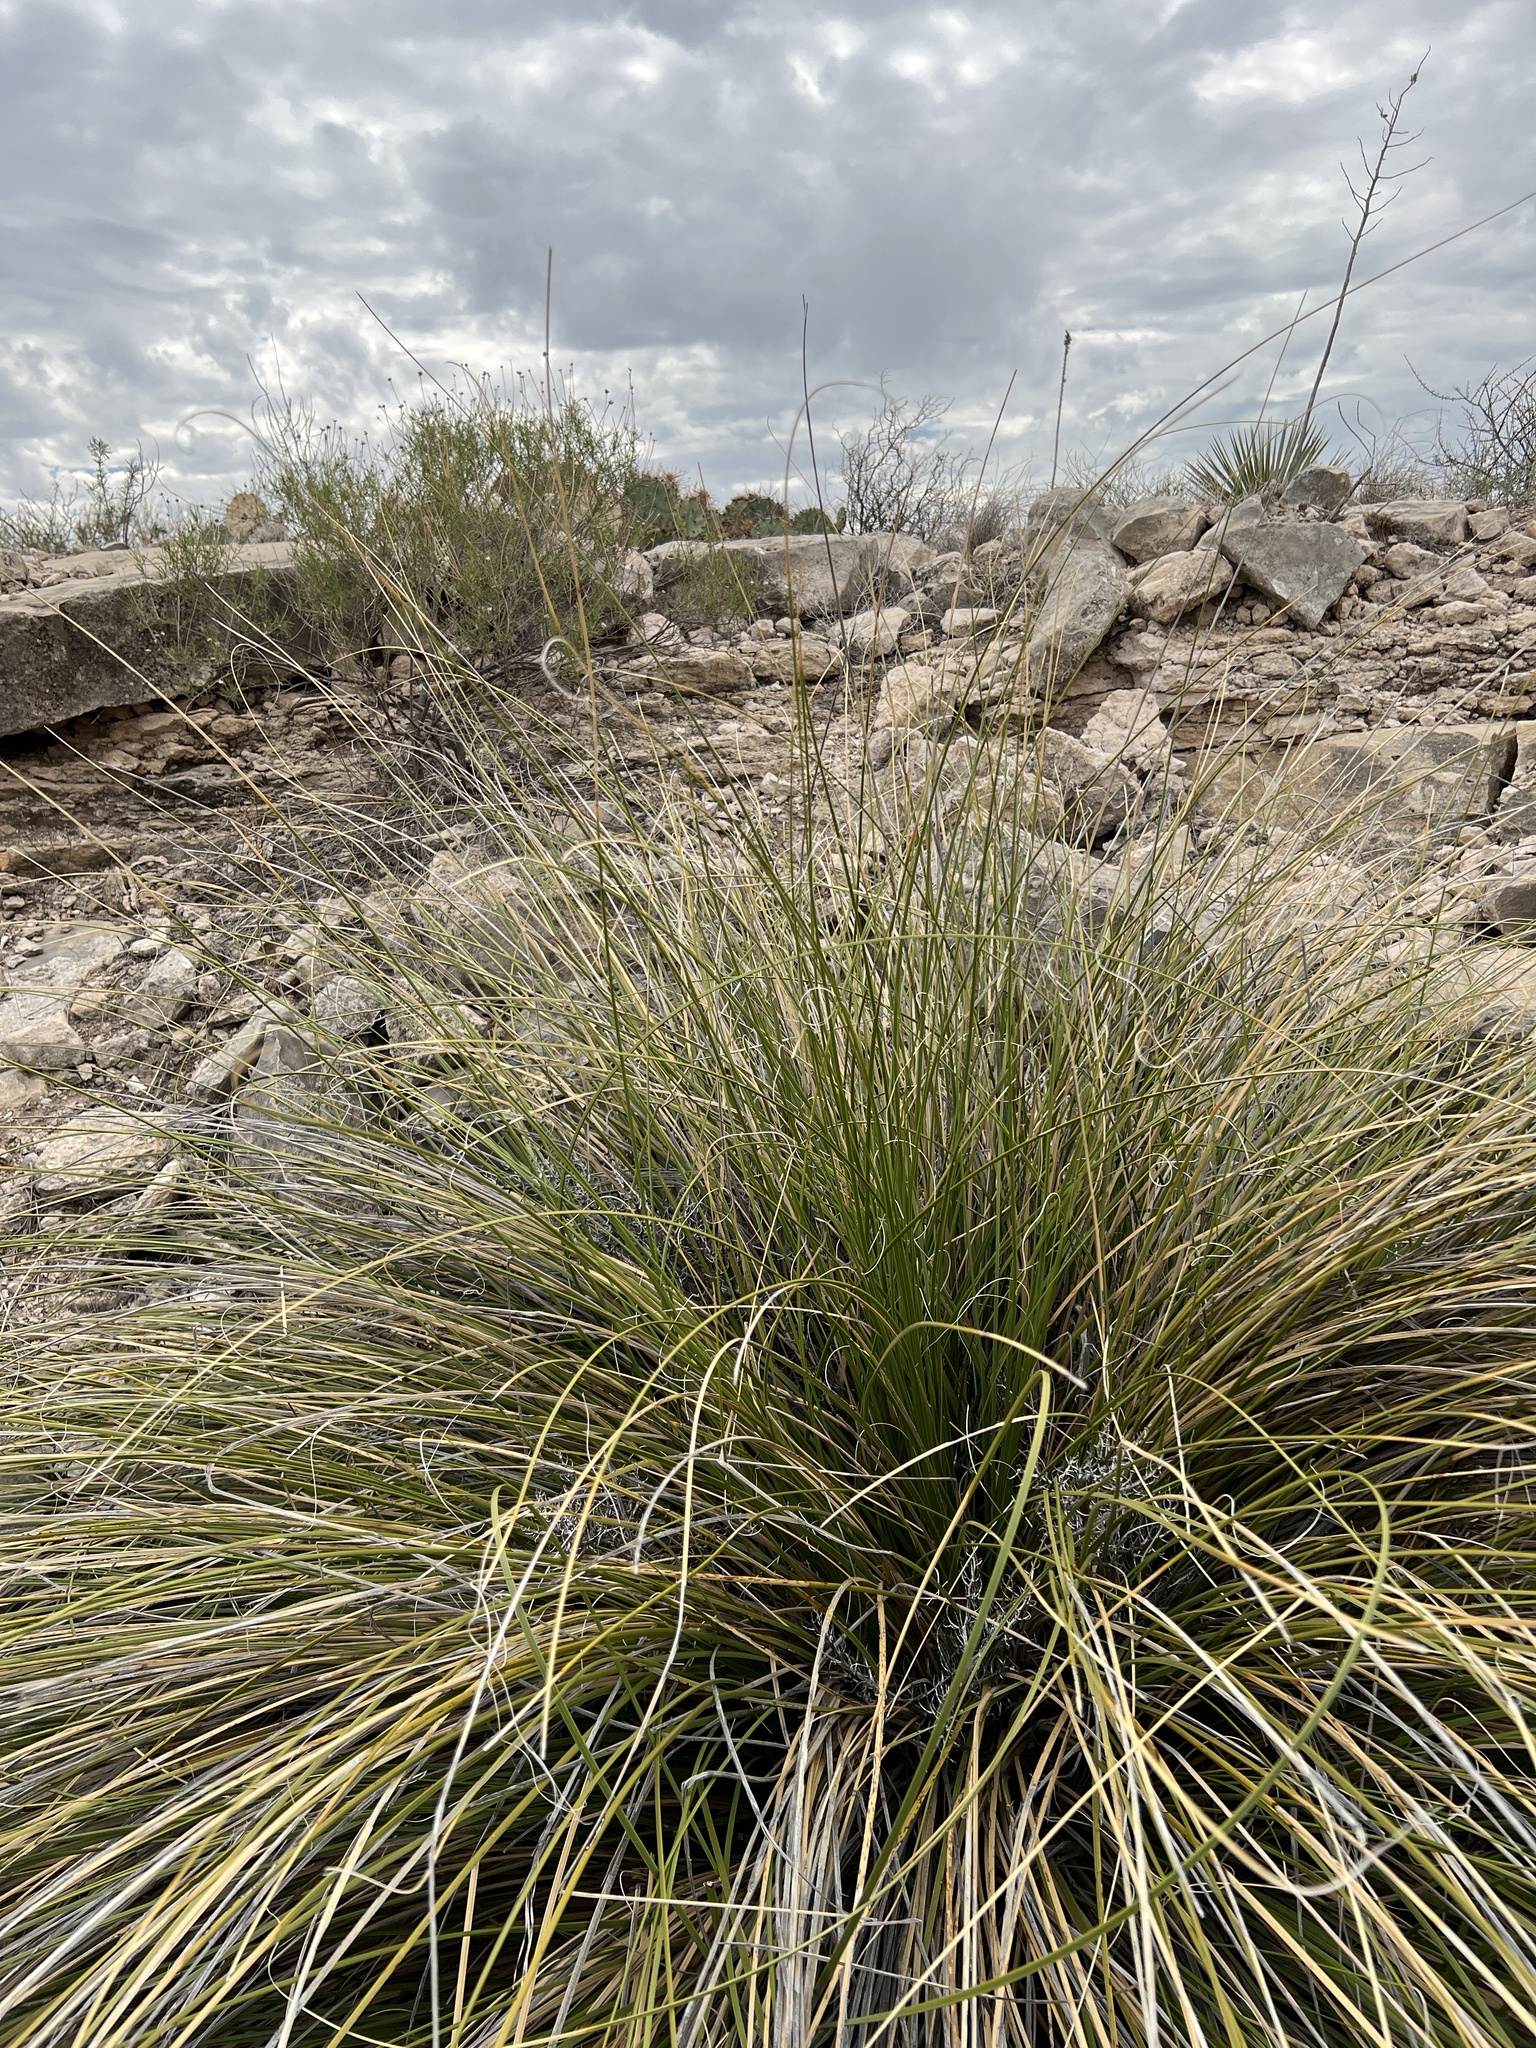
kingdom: Plantae
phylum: Tracheophyta
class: Liliopsida
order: Asparagales
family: Asparagaceae
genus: Nolina
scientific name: Nolina texana
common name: Texas sacahuiste
